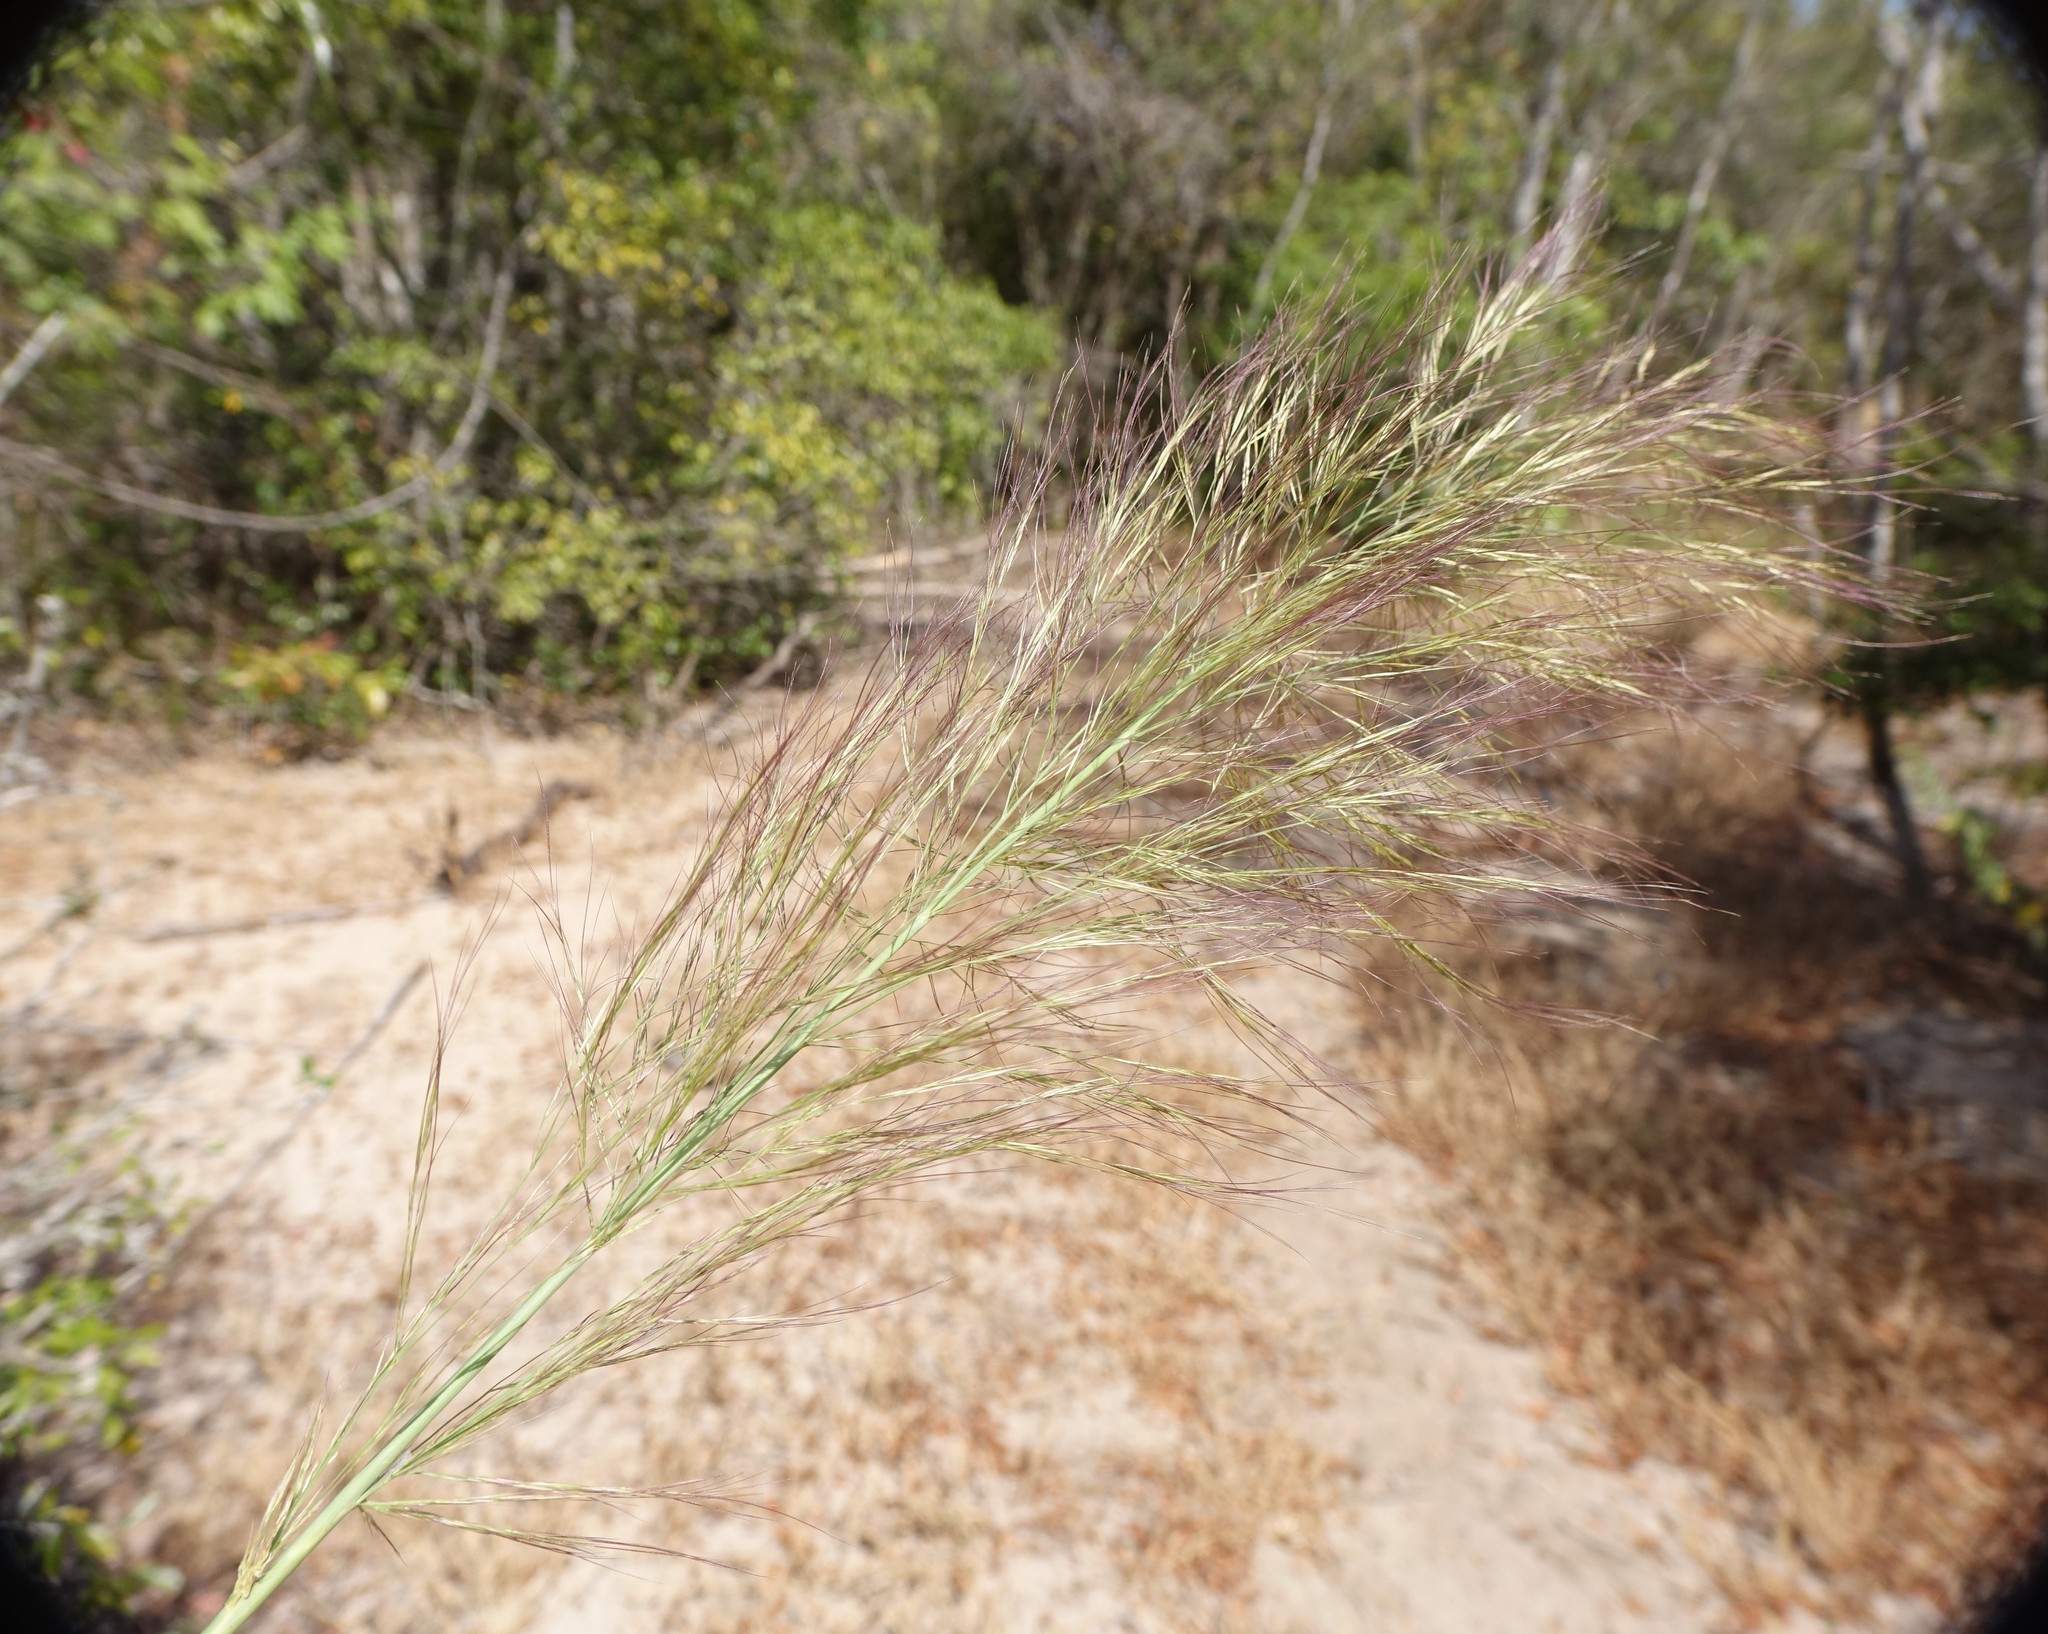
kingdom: Plantae
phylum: Tracheophyta
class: Liliopsida
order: Poales
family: Poaceae
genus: Aristida
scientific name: Aristida rufescens
